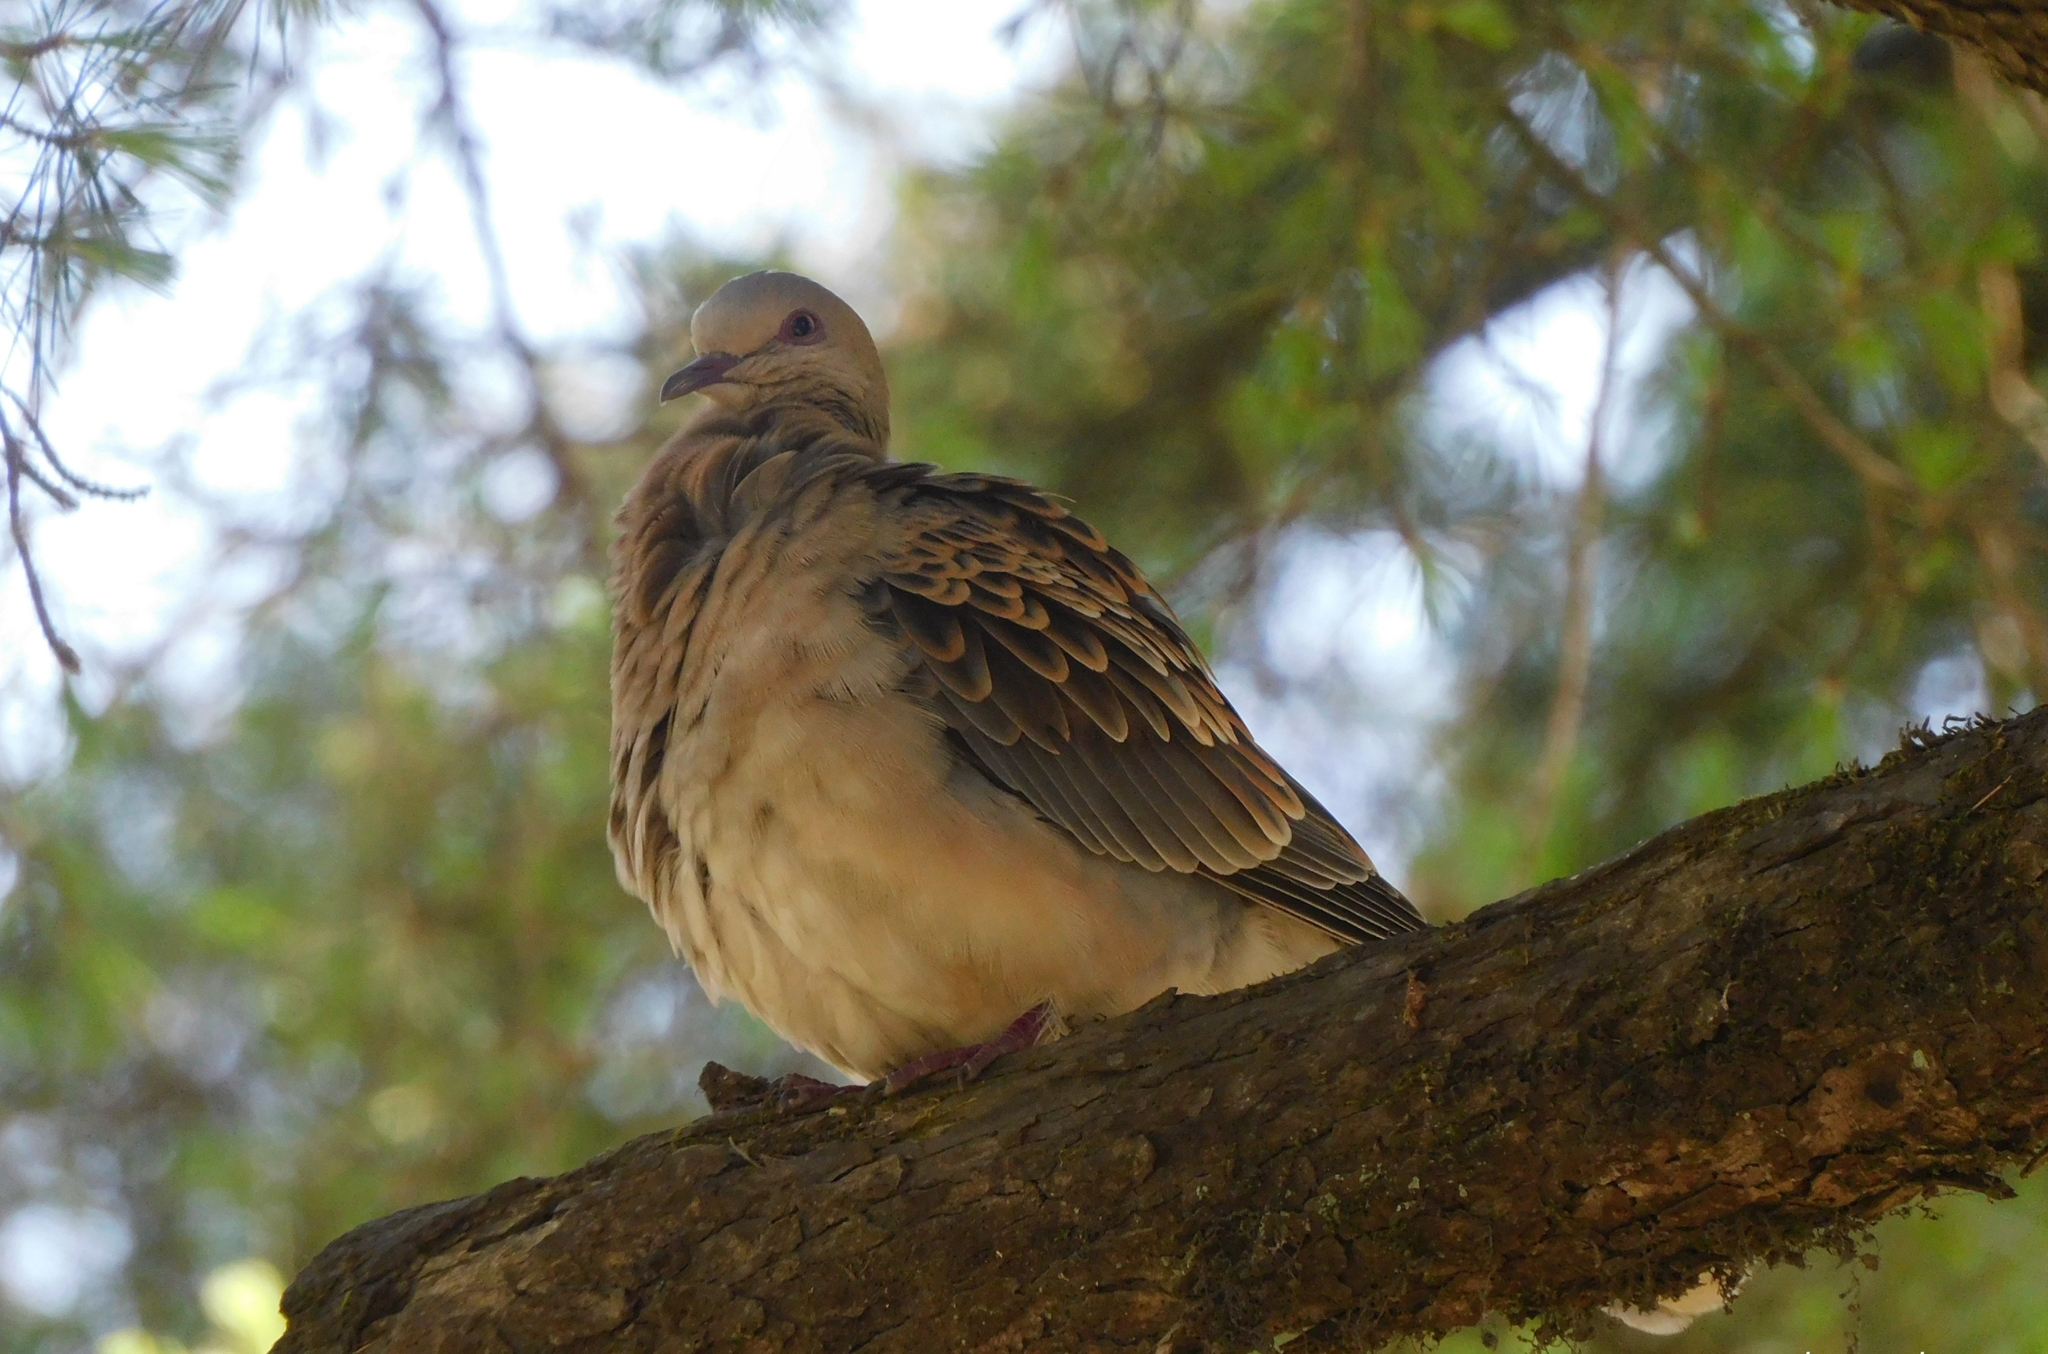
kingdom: Animalia
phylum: Chordata
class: Aves
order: Columbiformes
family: Columbidae
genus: Streptopelia
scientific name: Streptopelia orientalis
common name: Oriental turtle dove
